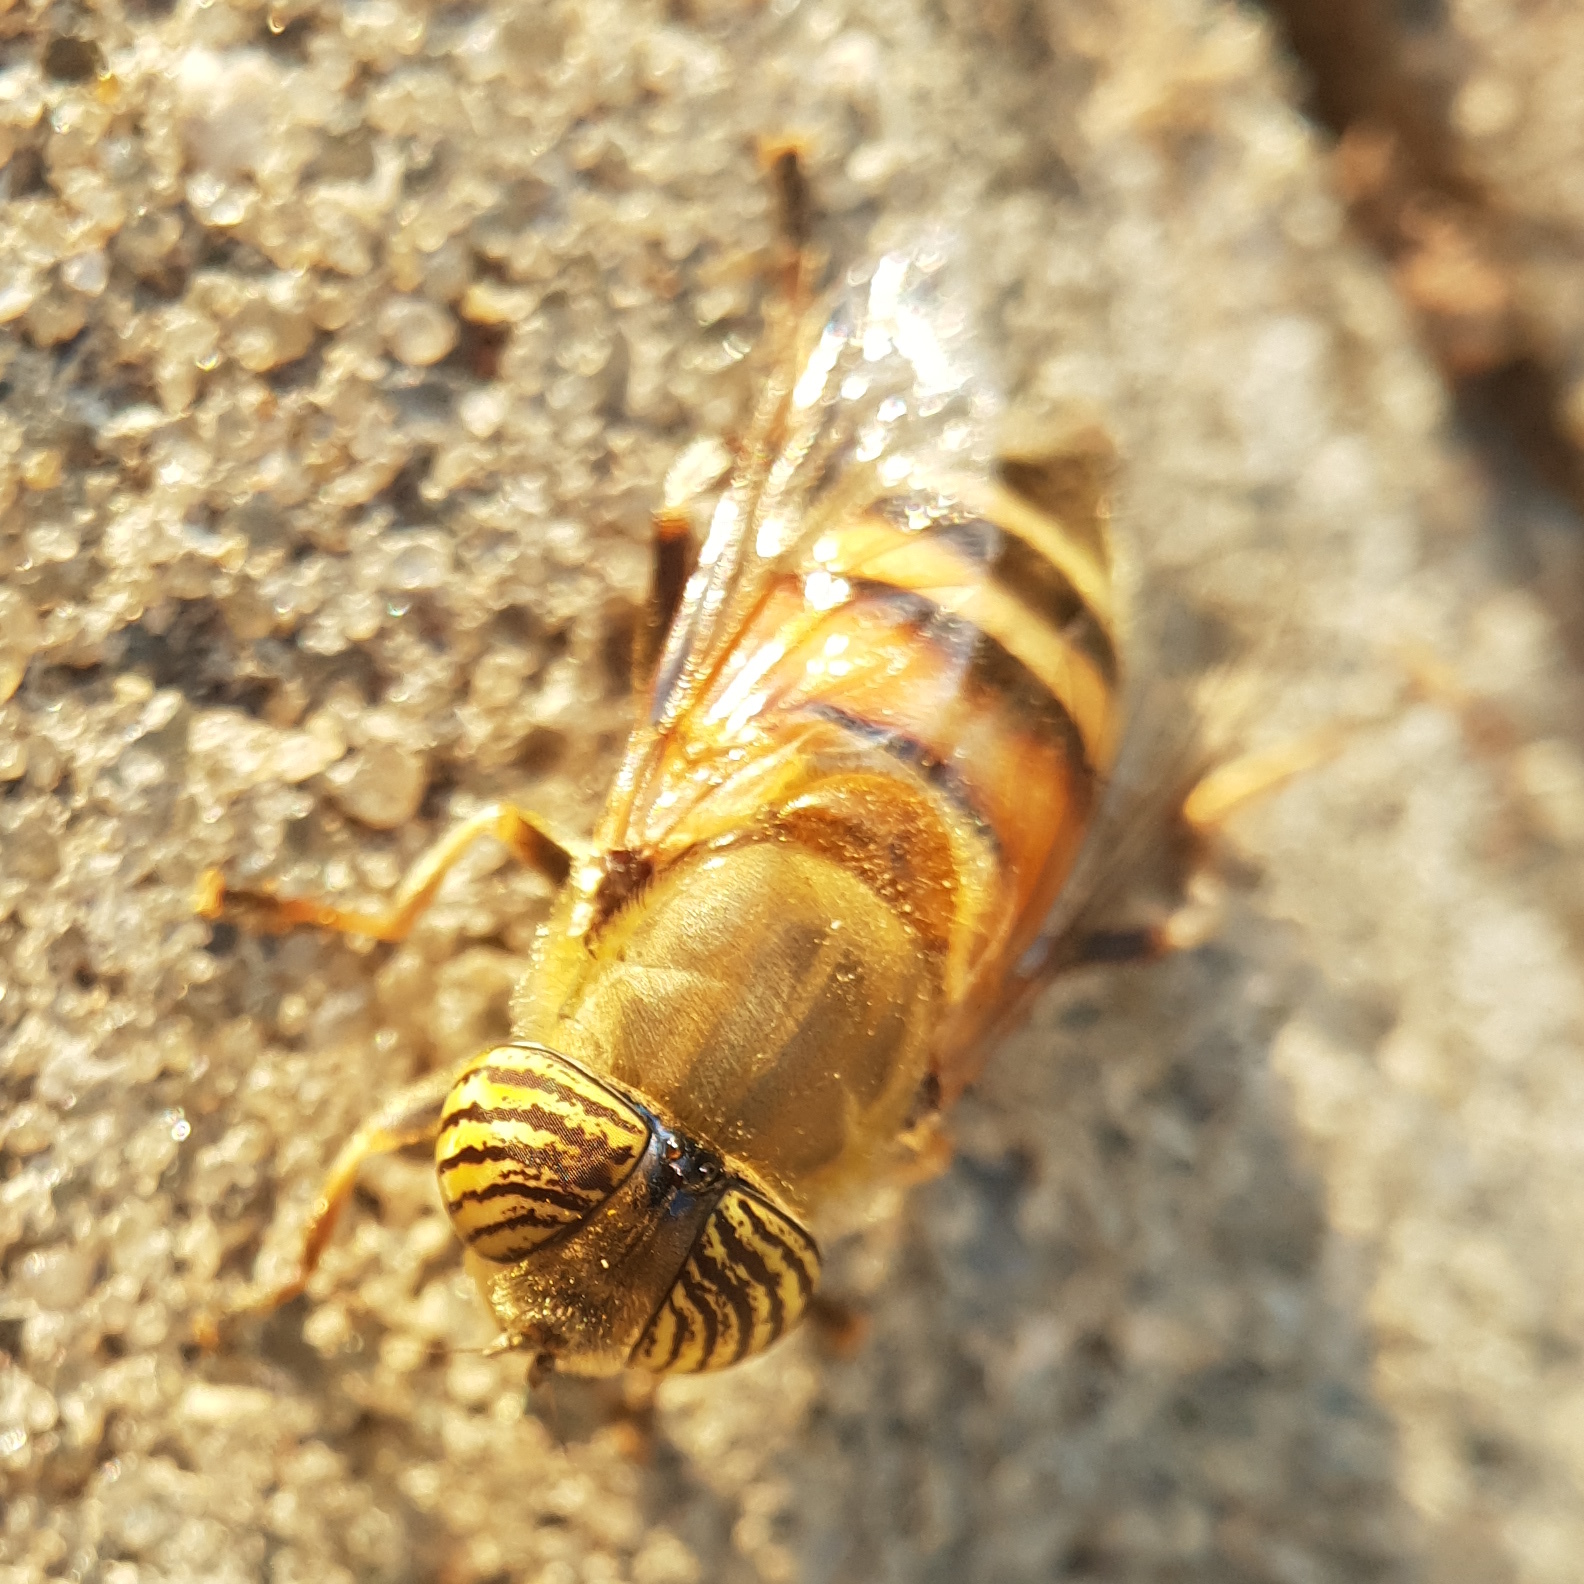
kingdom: Animalia
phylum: Arthropoda
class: Insecta
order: Diptera
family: Syrphidae
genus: Eristalinus
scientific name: Eristalinus taeniops
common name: Syrphid fly
